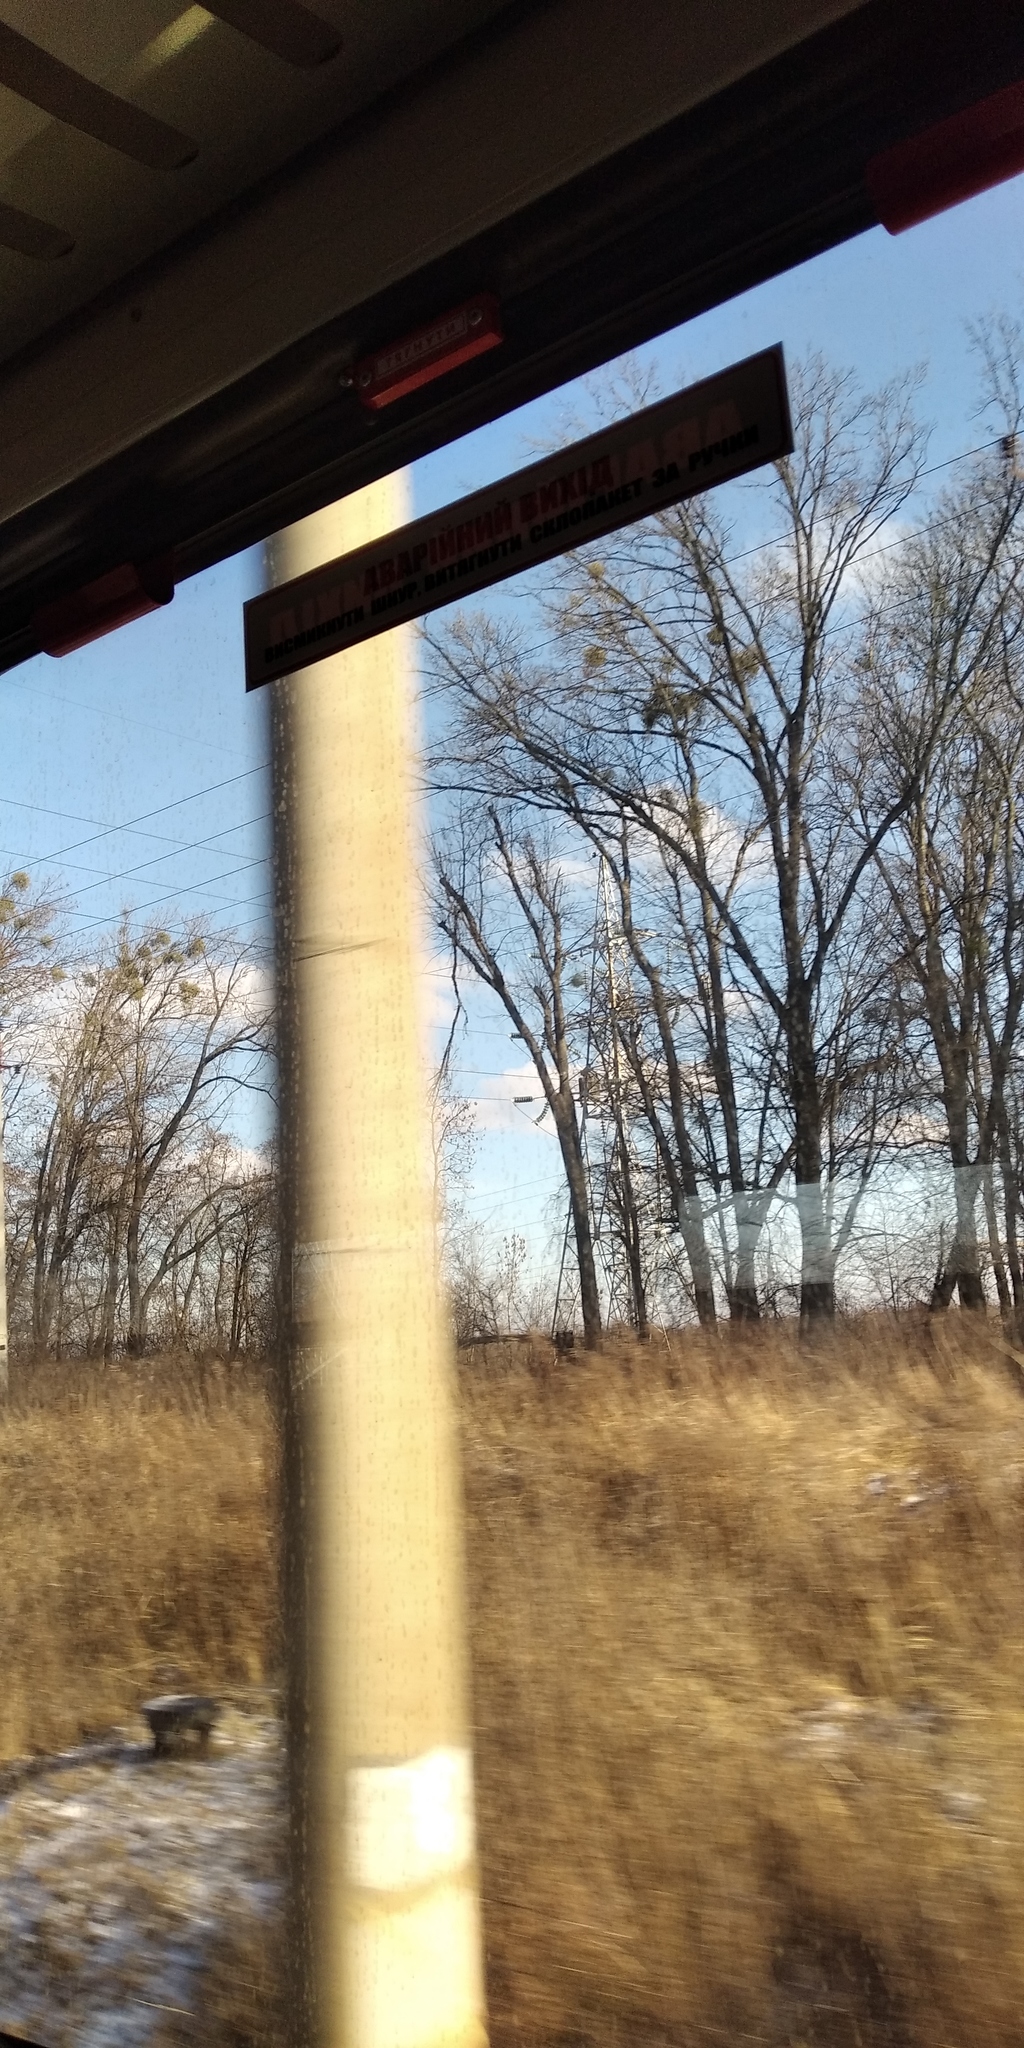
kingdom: Plantae
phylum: Tracheophyta
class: Magnoliopsida
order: Santalales
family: Viscaceae
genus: Viscum
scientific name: Viscum album
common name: Mistletoe
